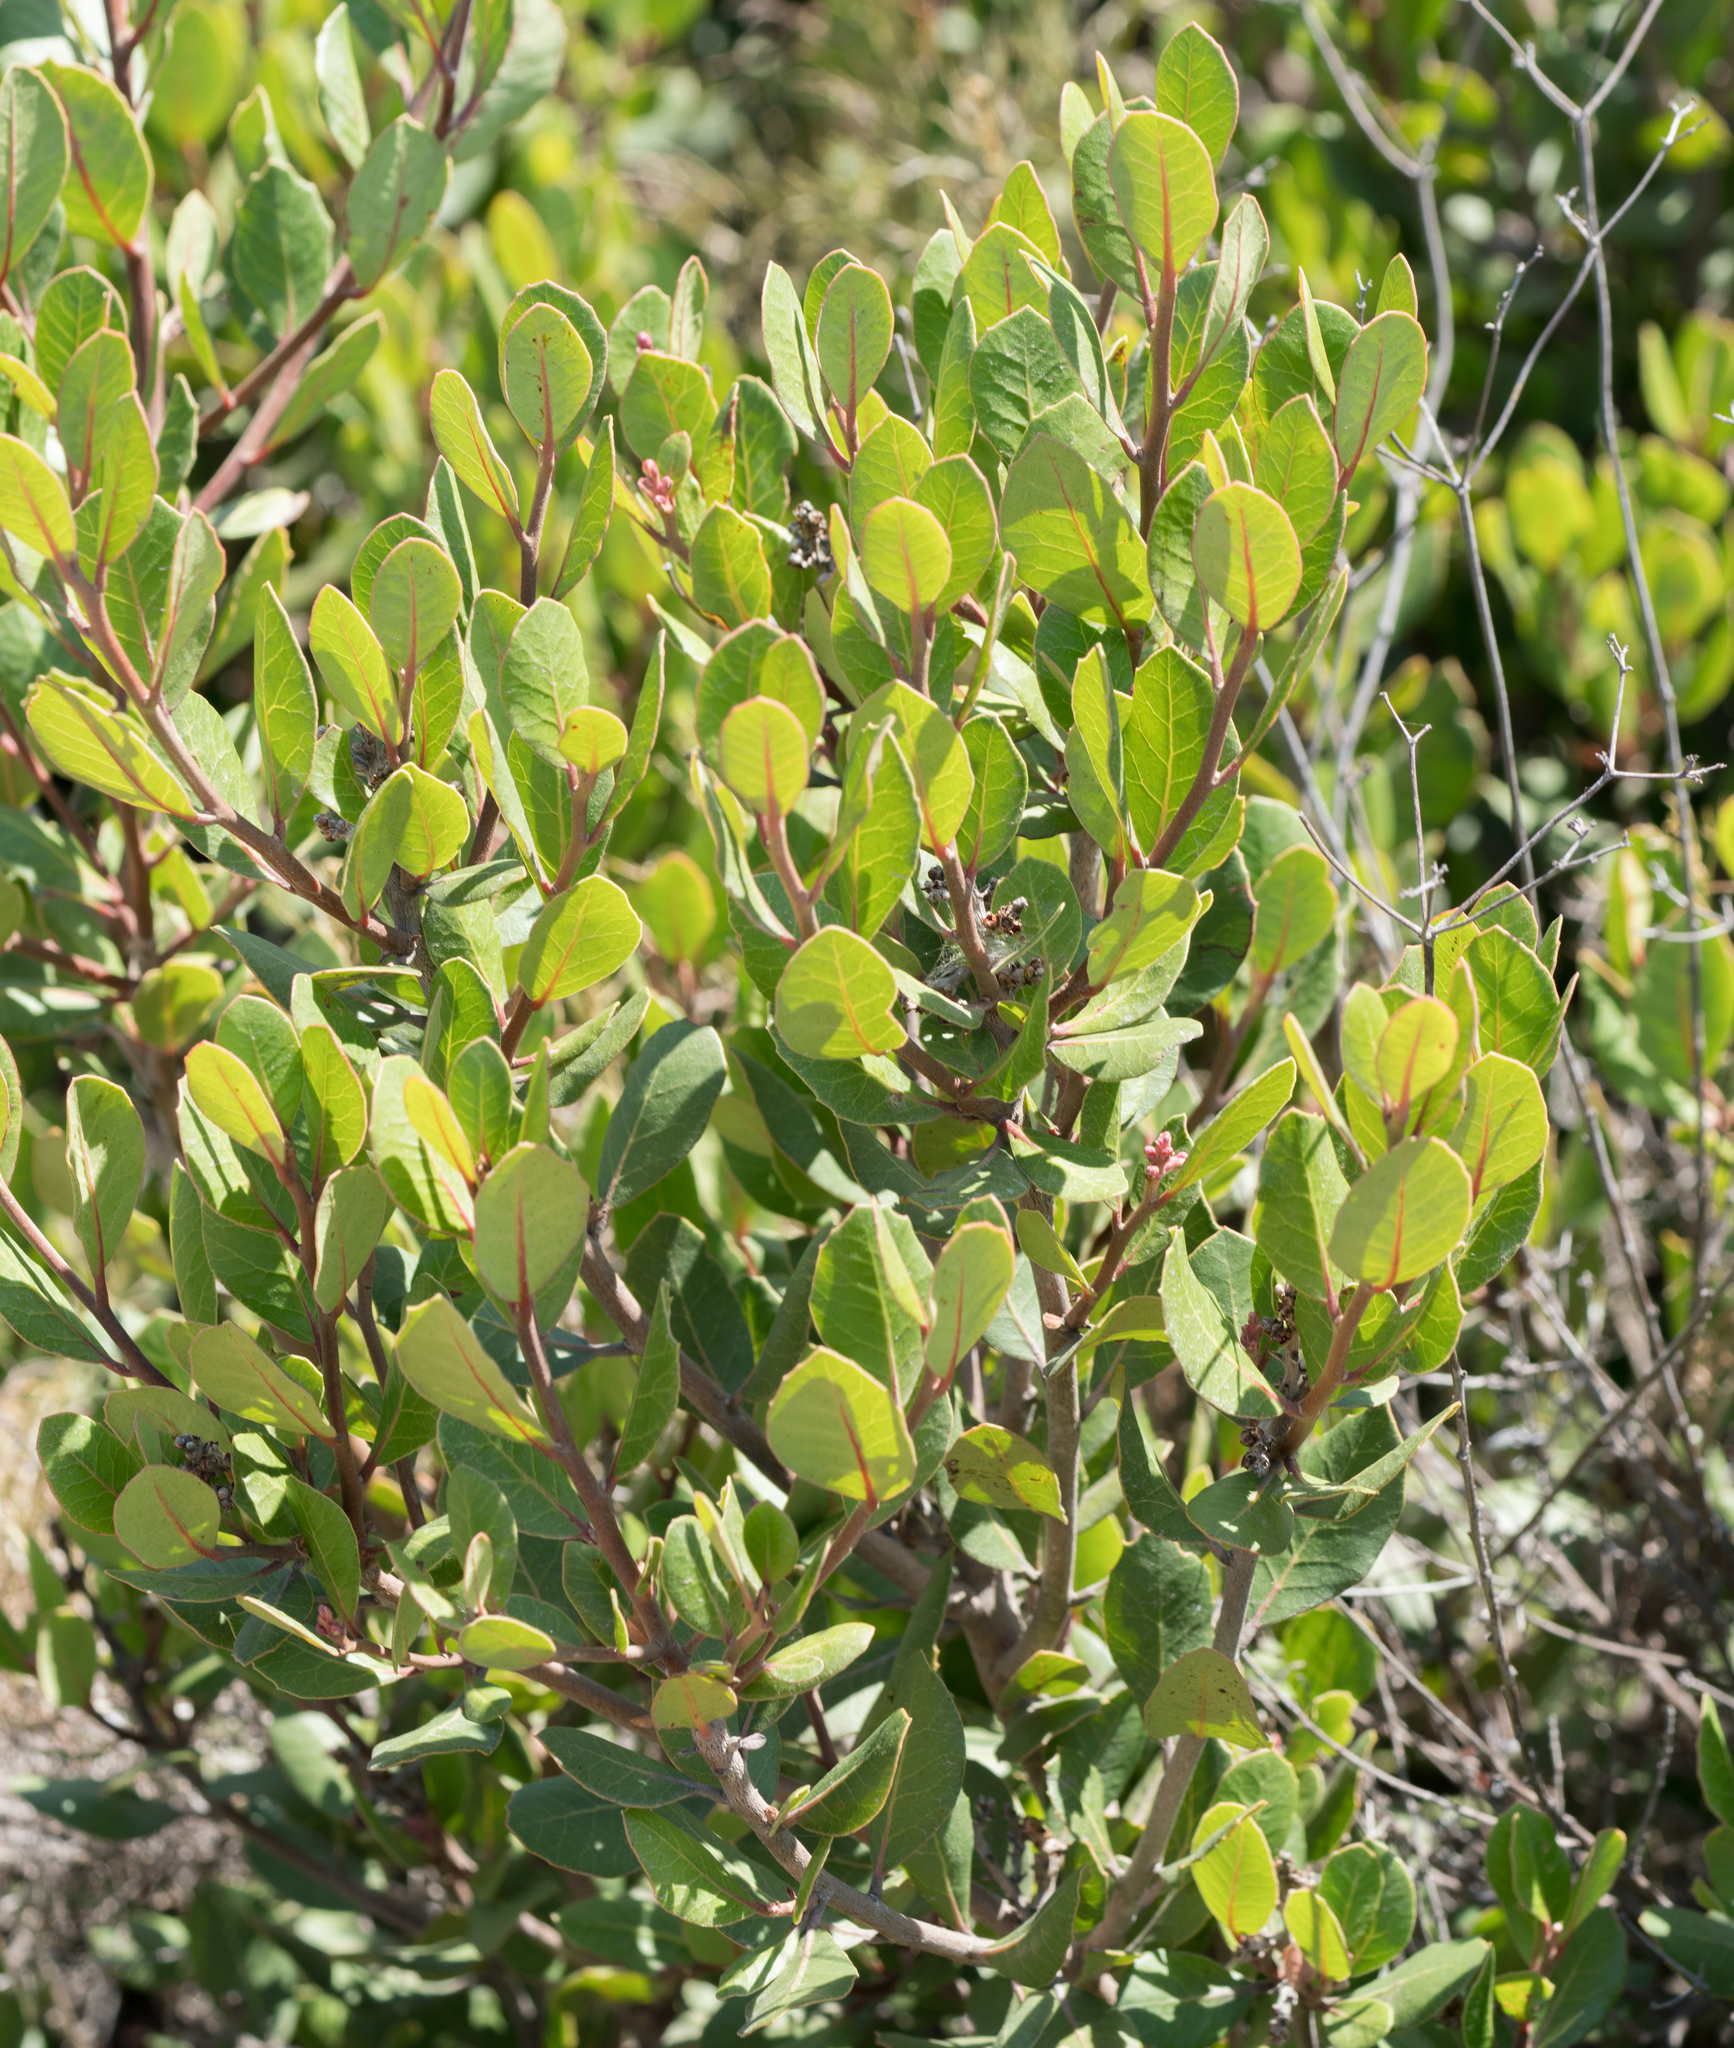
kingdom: Plantae
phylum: Tracheophyta
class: Magnoliopsida
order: Sapindales
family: Anacardiaceae
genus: Rhus
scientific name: Rhus integrifolia
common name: Lemonade sumac
